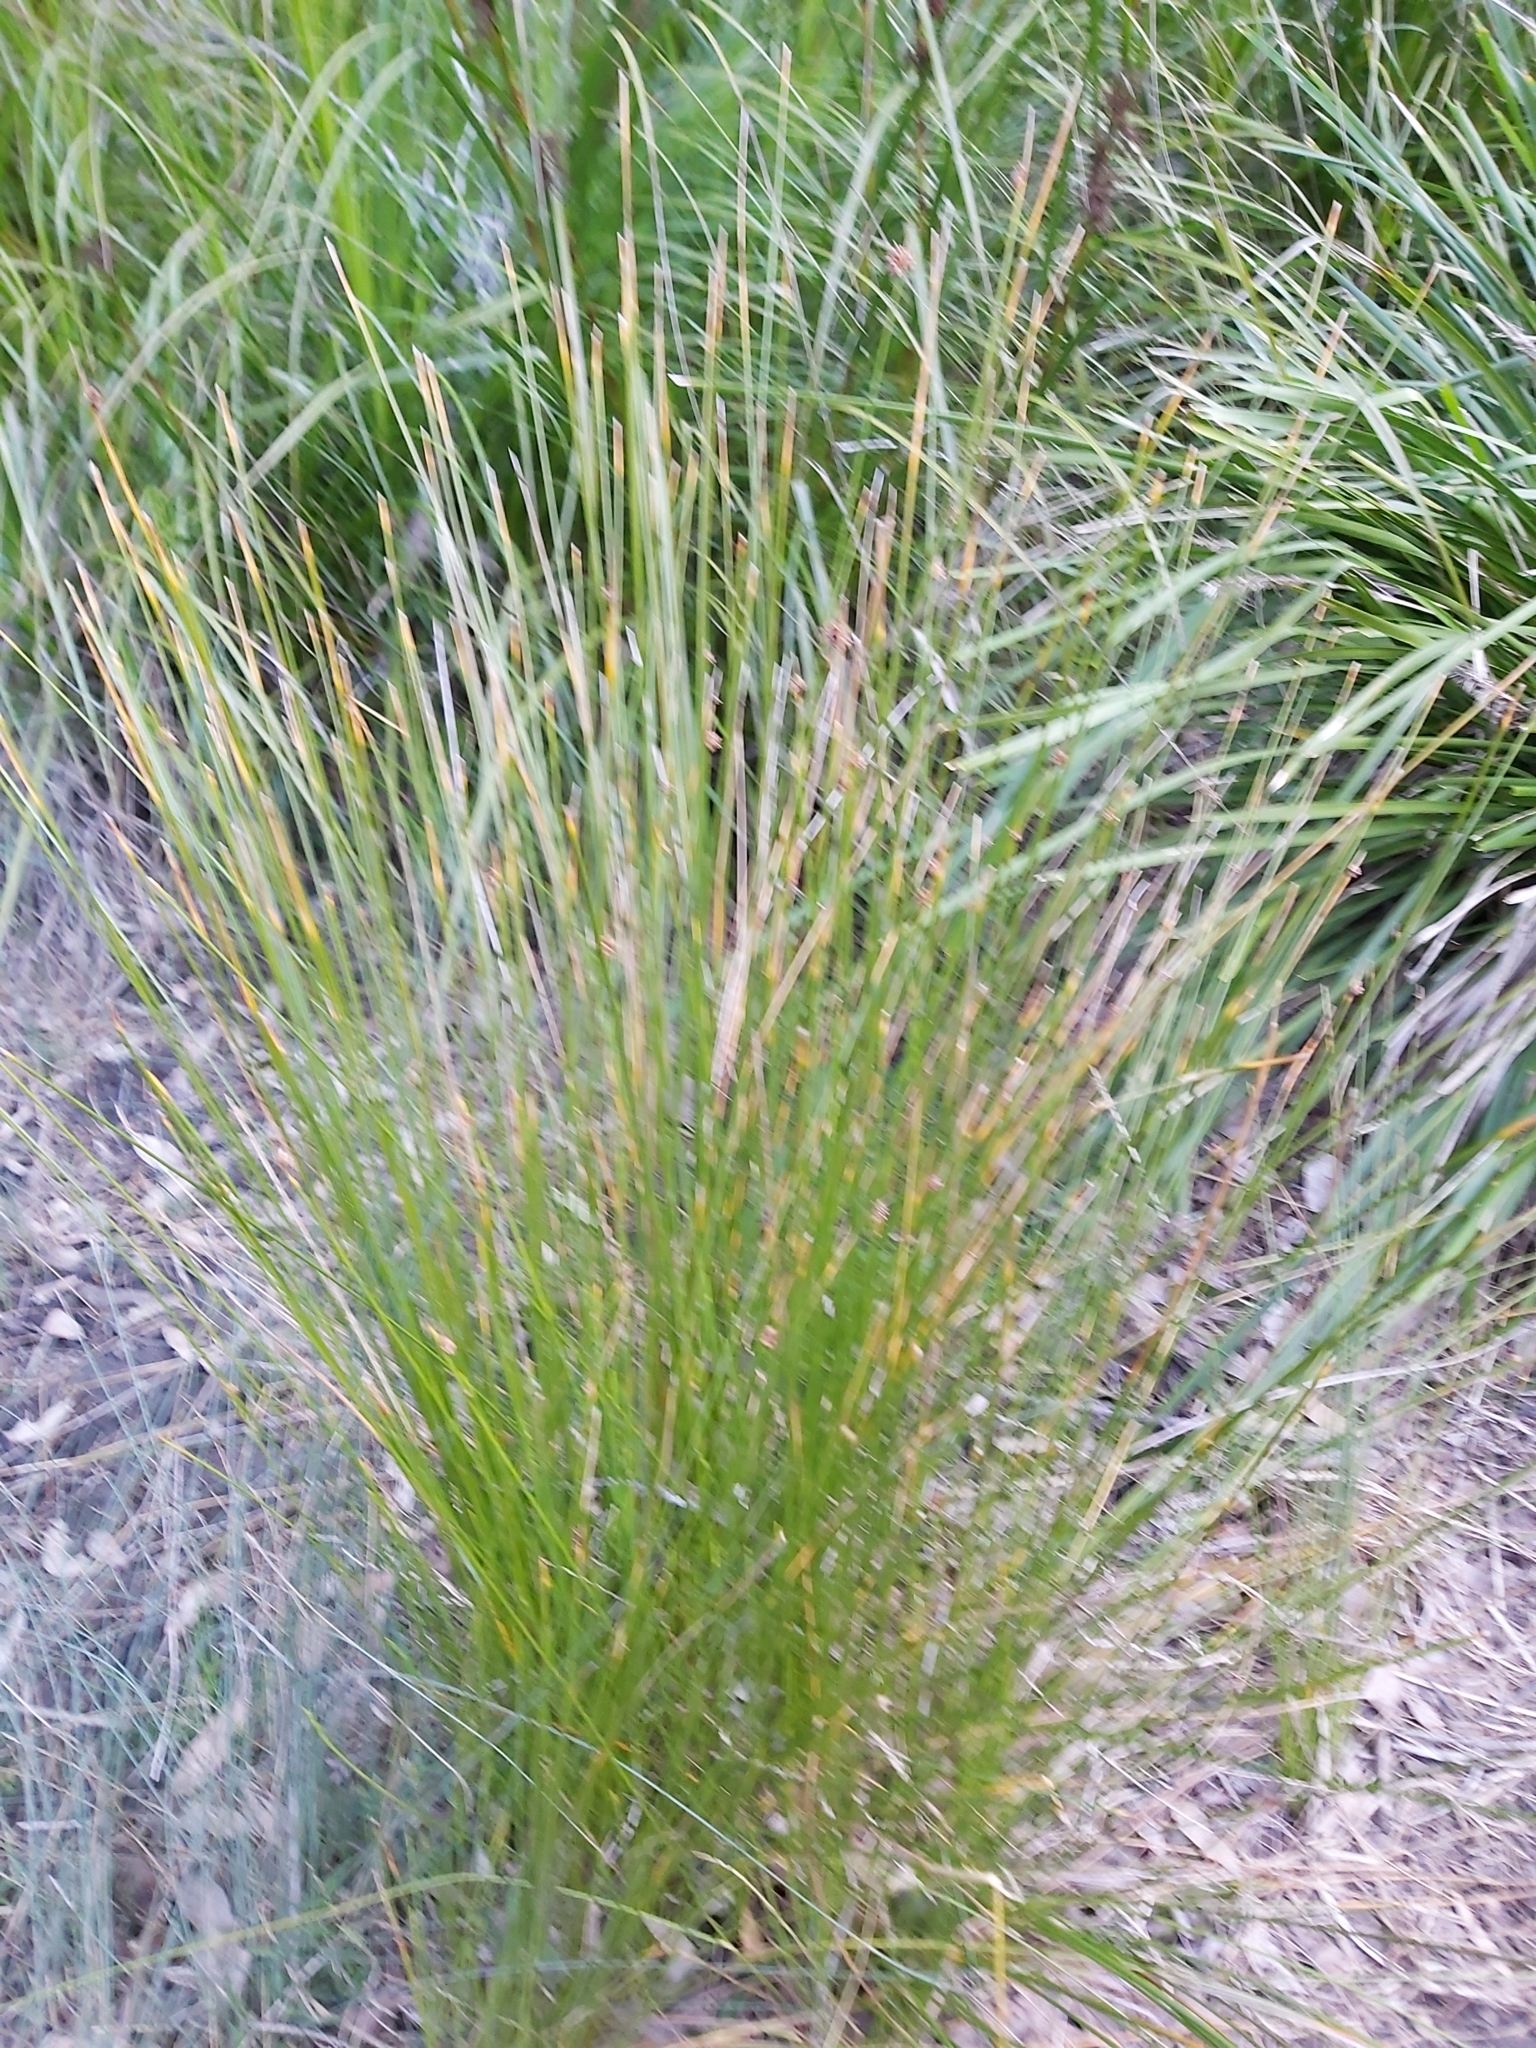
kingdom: Plantae
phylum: Tracheophyta
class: Liliopsida
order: Poales
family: Cyperaceae
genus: Ficinia
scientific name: Ficinia nodosa
